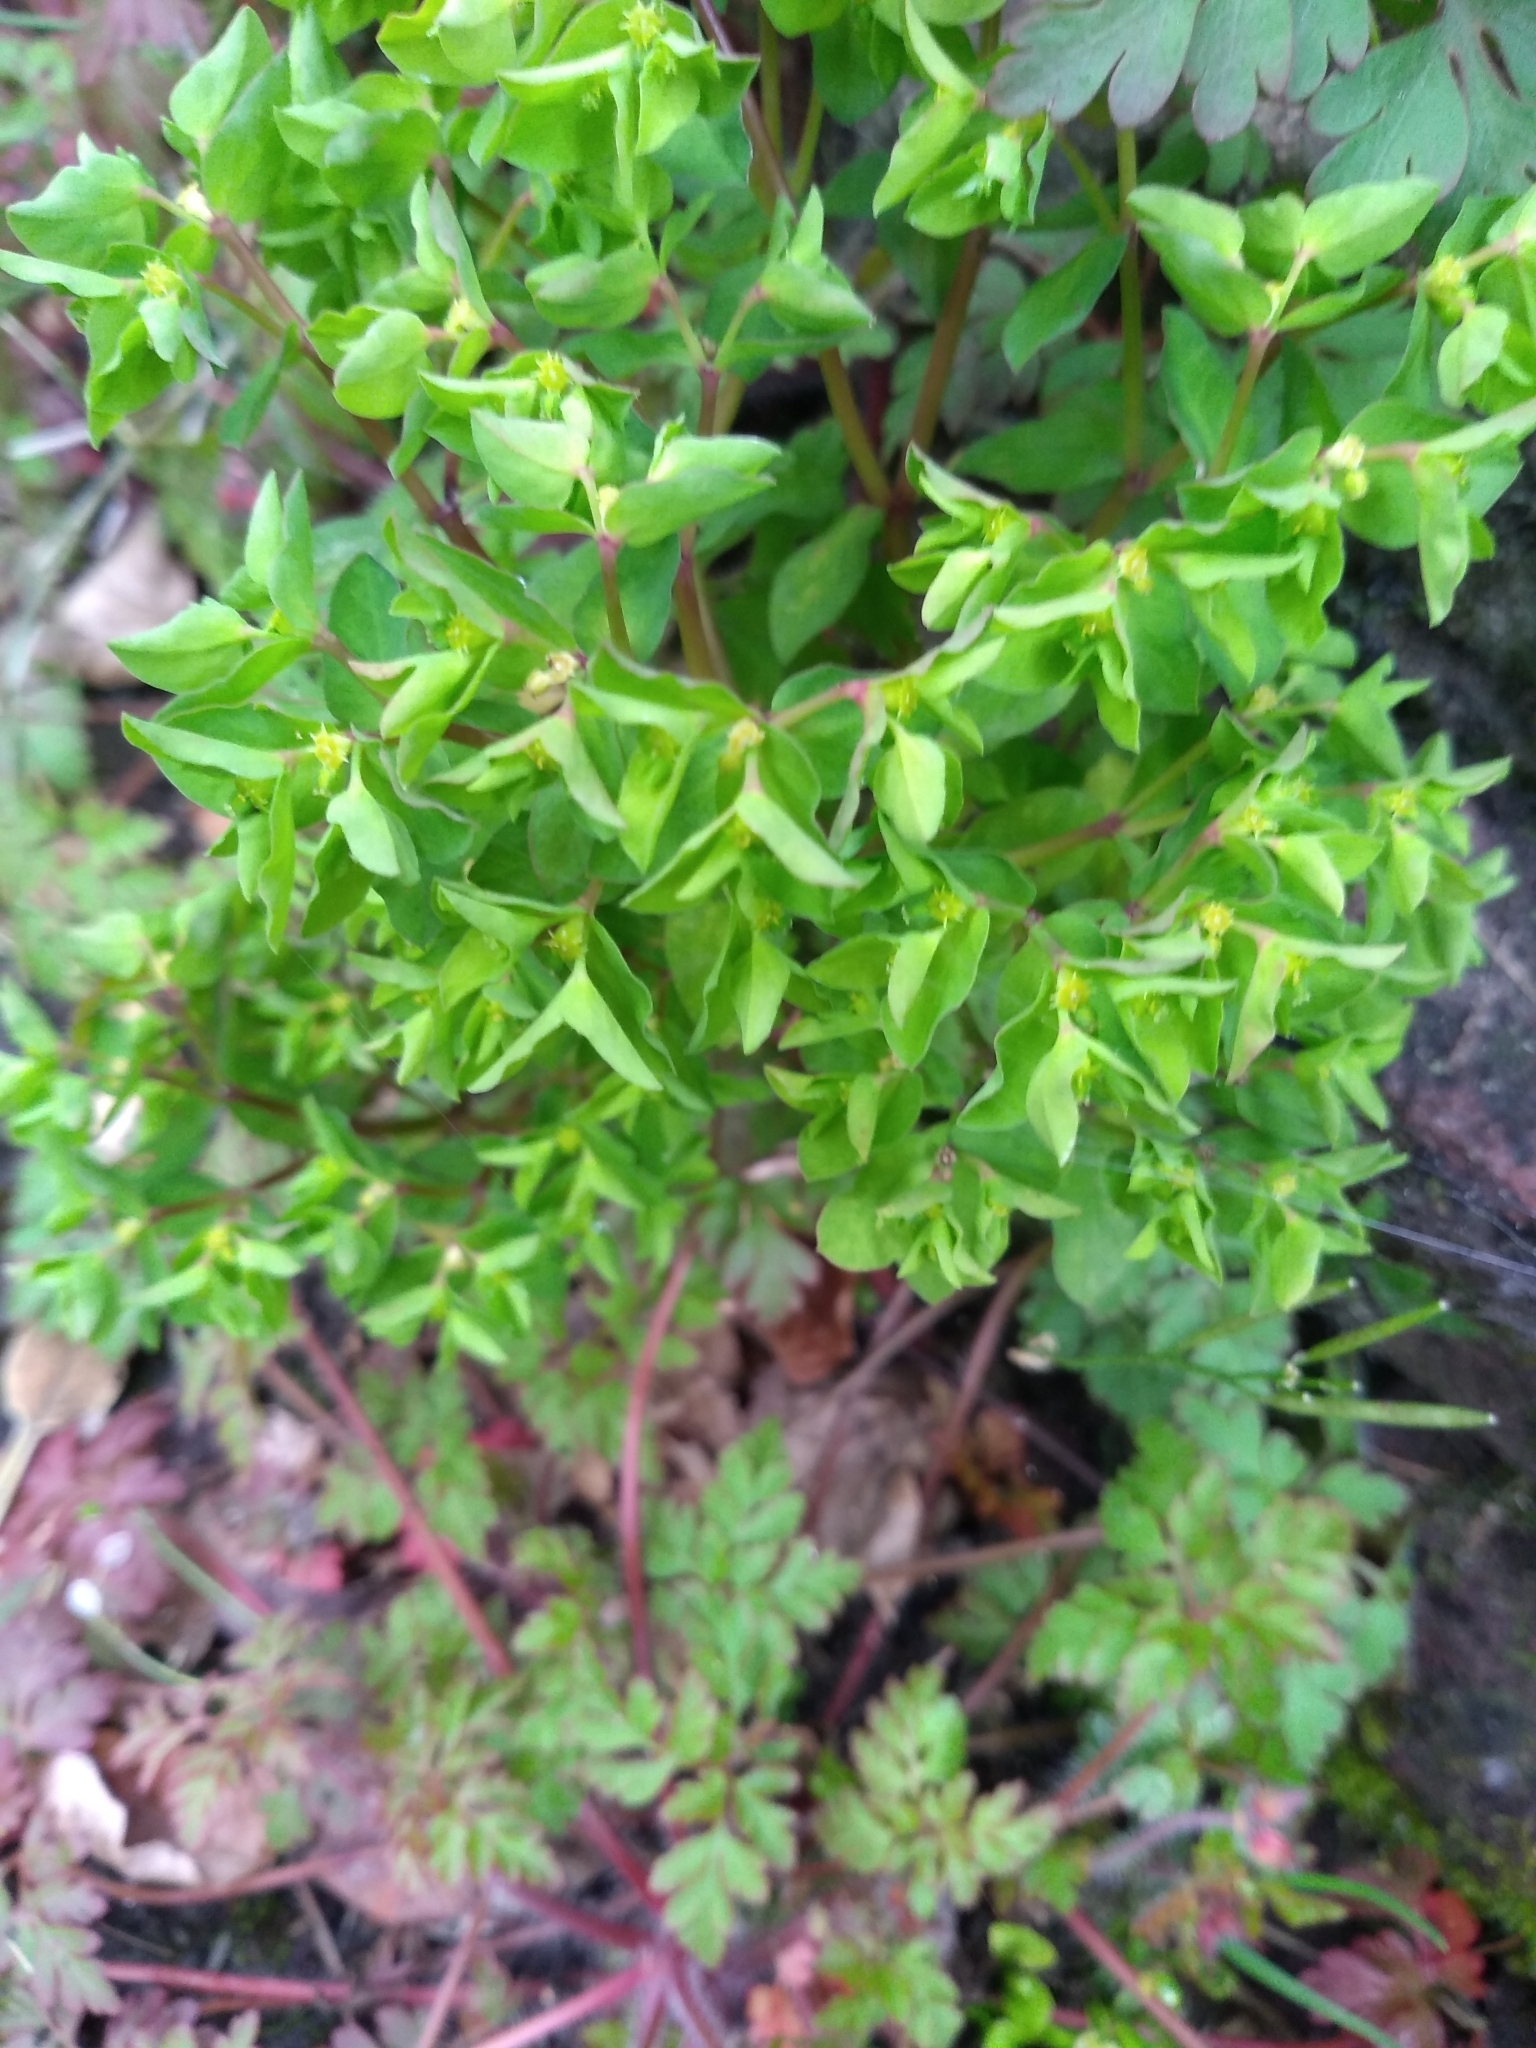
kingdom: Plantae
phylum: Tracheophyta
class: Magnoliopsida
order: Malpighiales
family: Euphorbiaceae
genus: Euphorbia
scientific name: Euphorbia peplus
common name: Petty spurge
